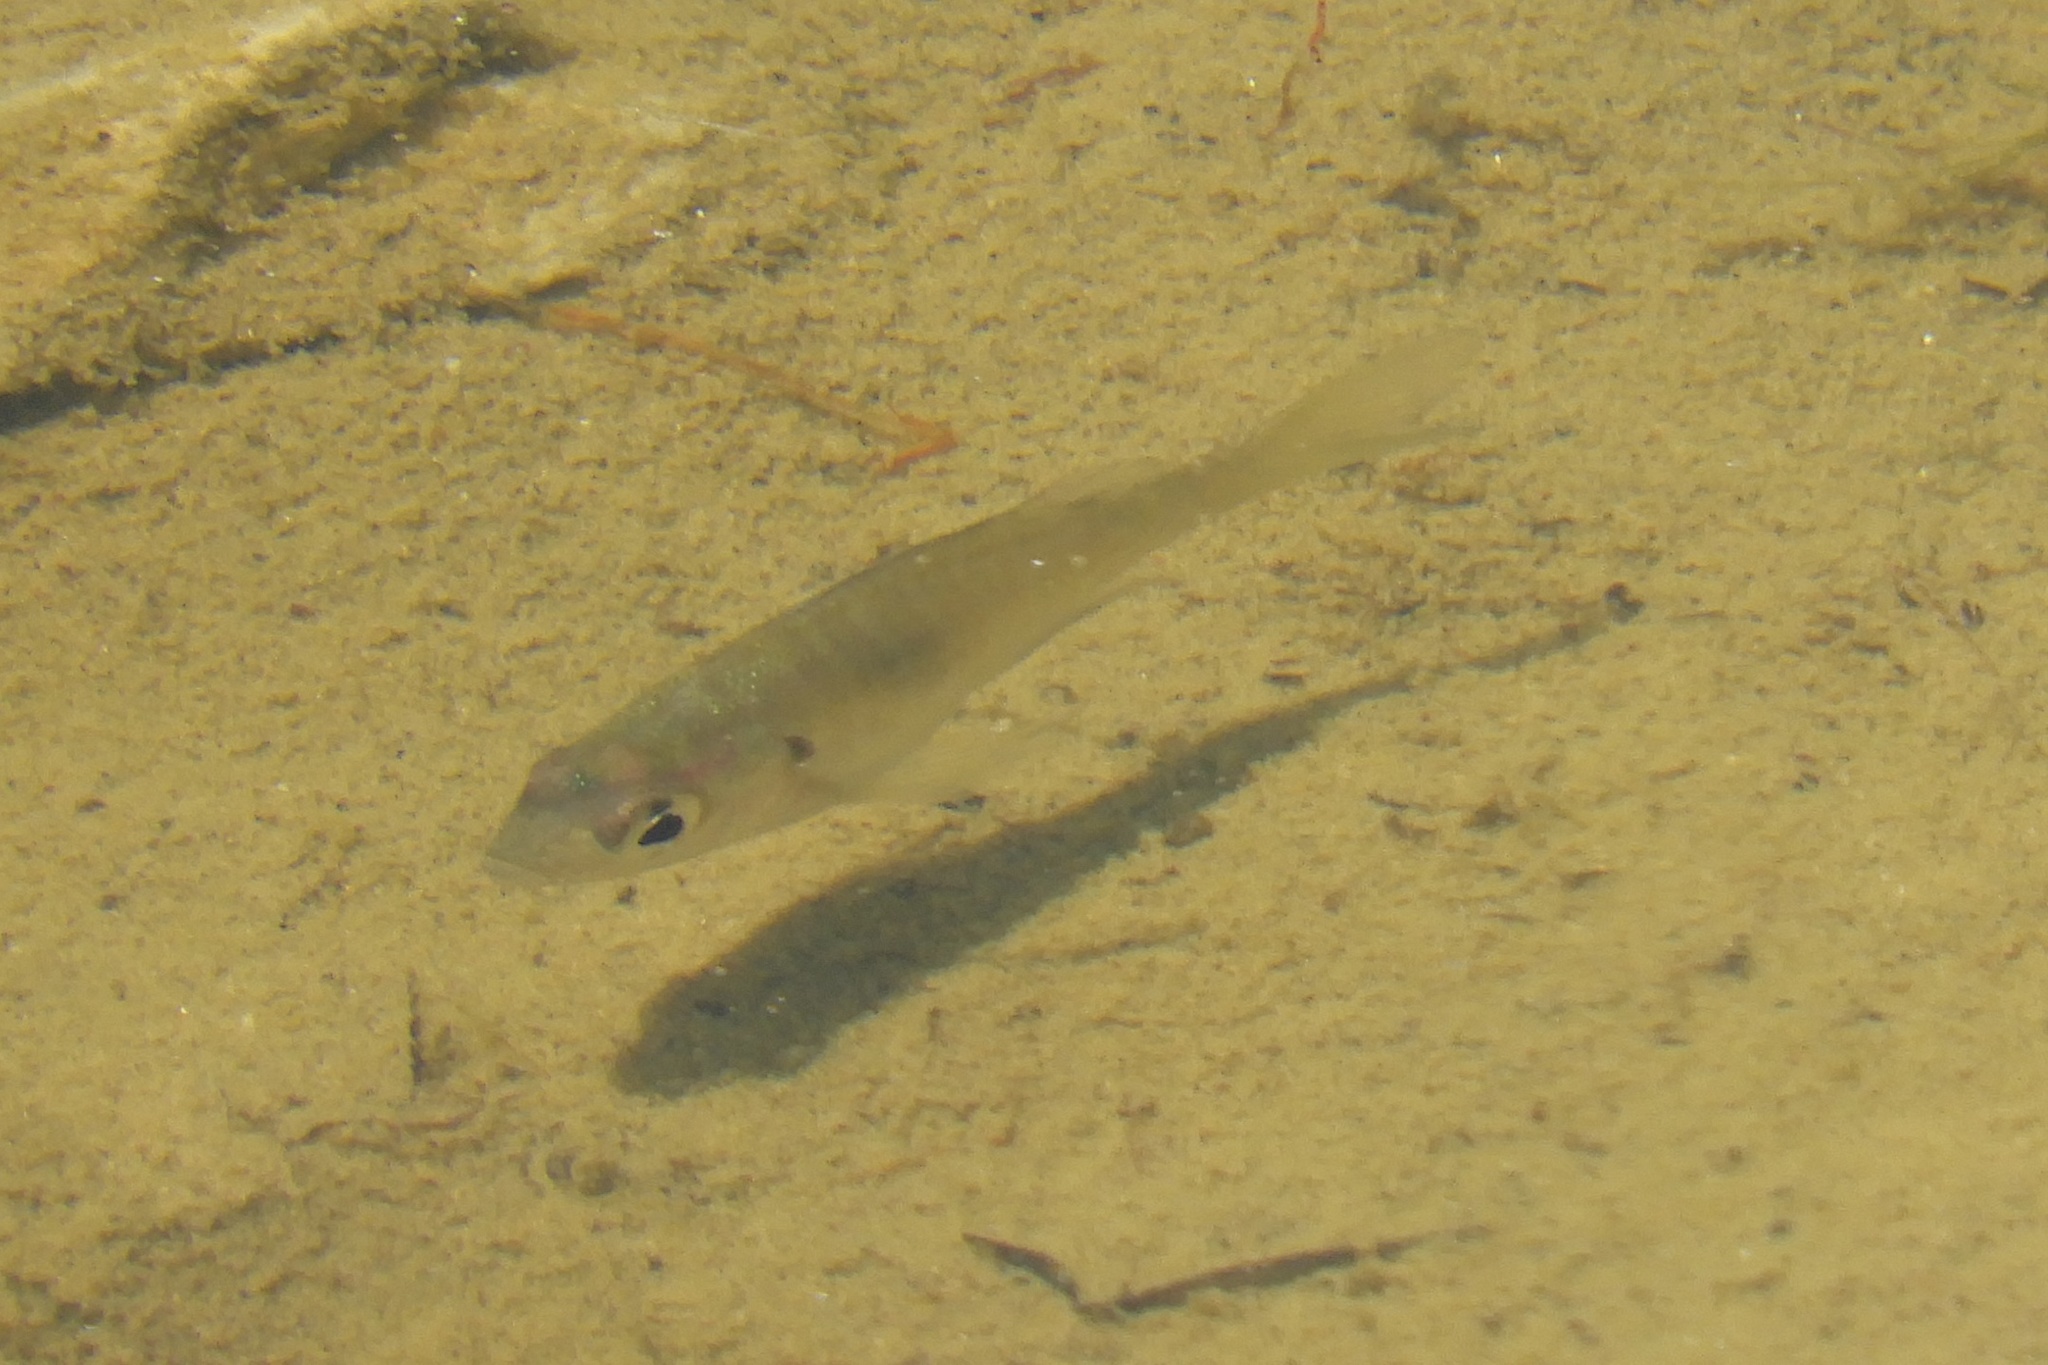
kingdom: Animalia
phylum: Chordata
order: Perciformes
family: Centrarchidae
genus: Lepomis
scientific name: Lepomis macrochirus
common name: Bluegill
